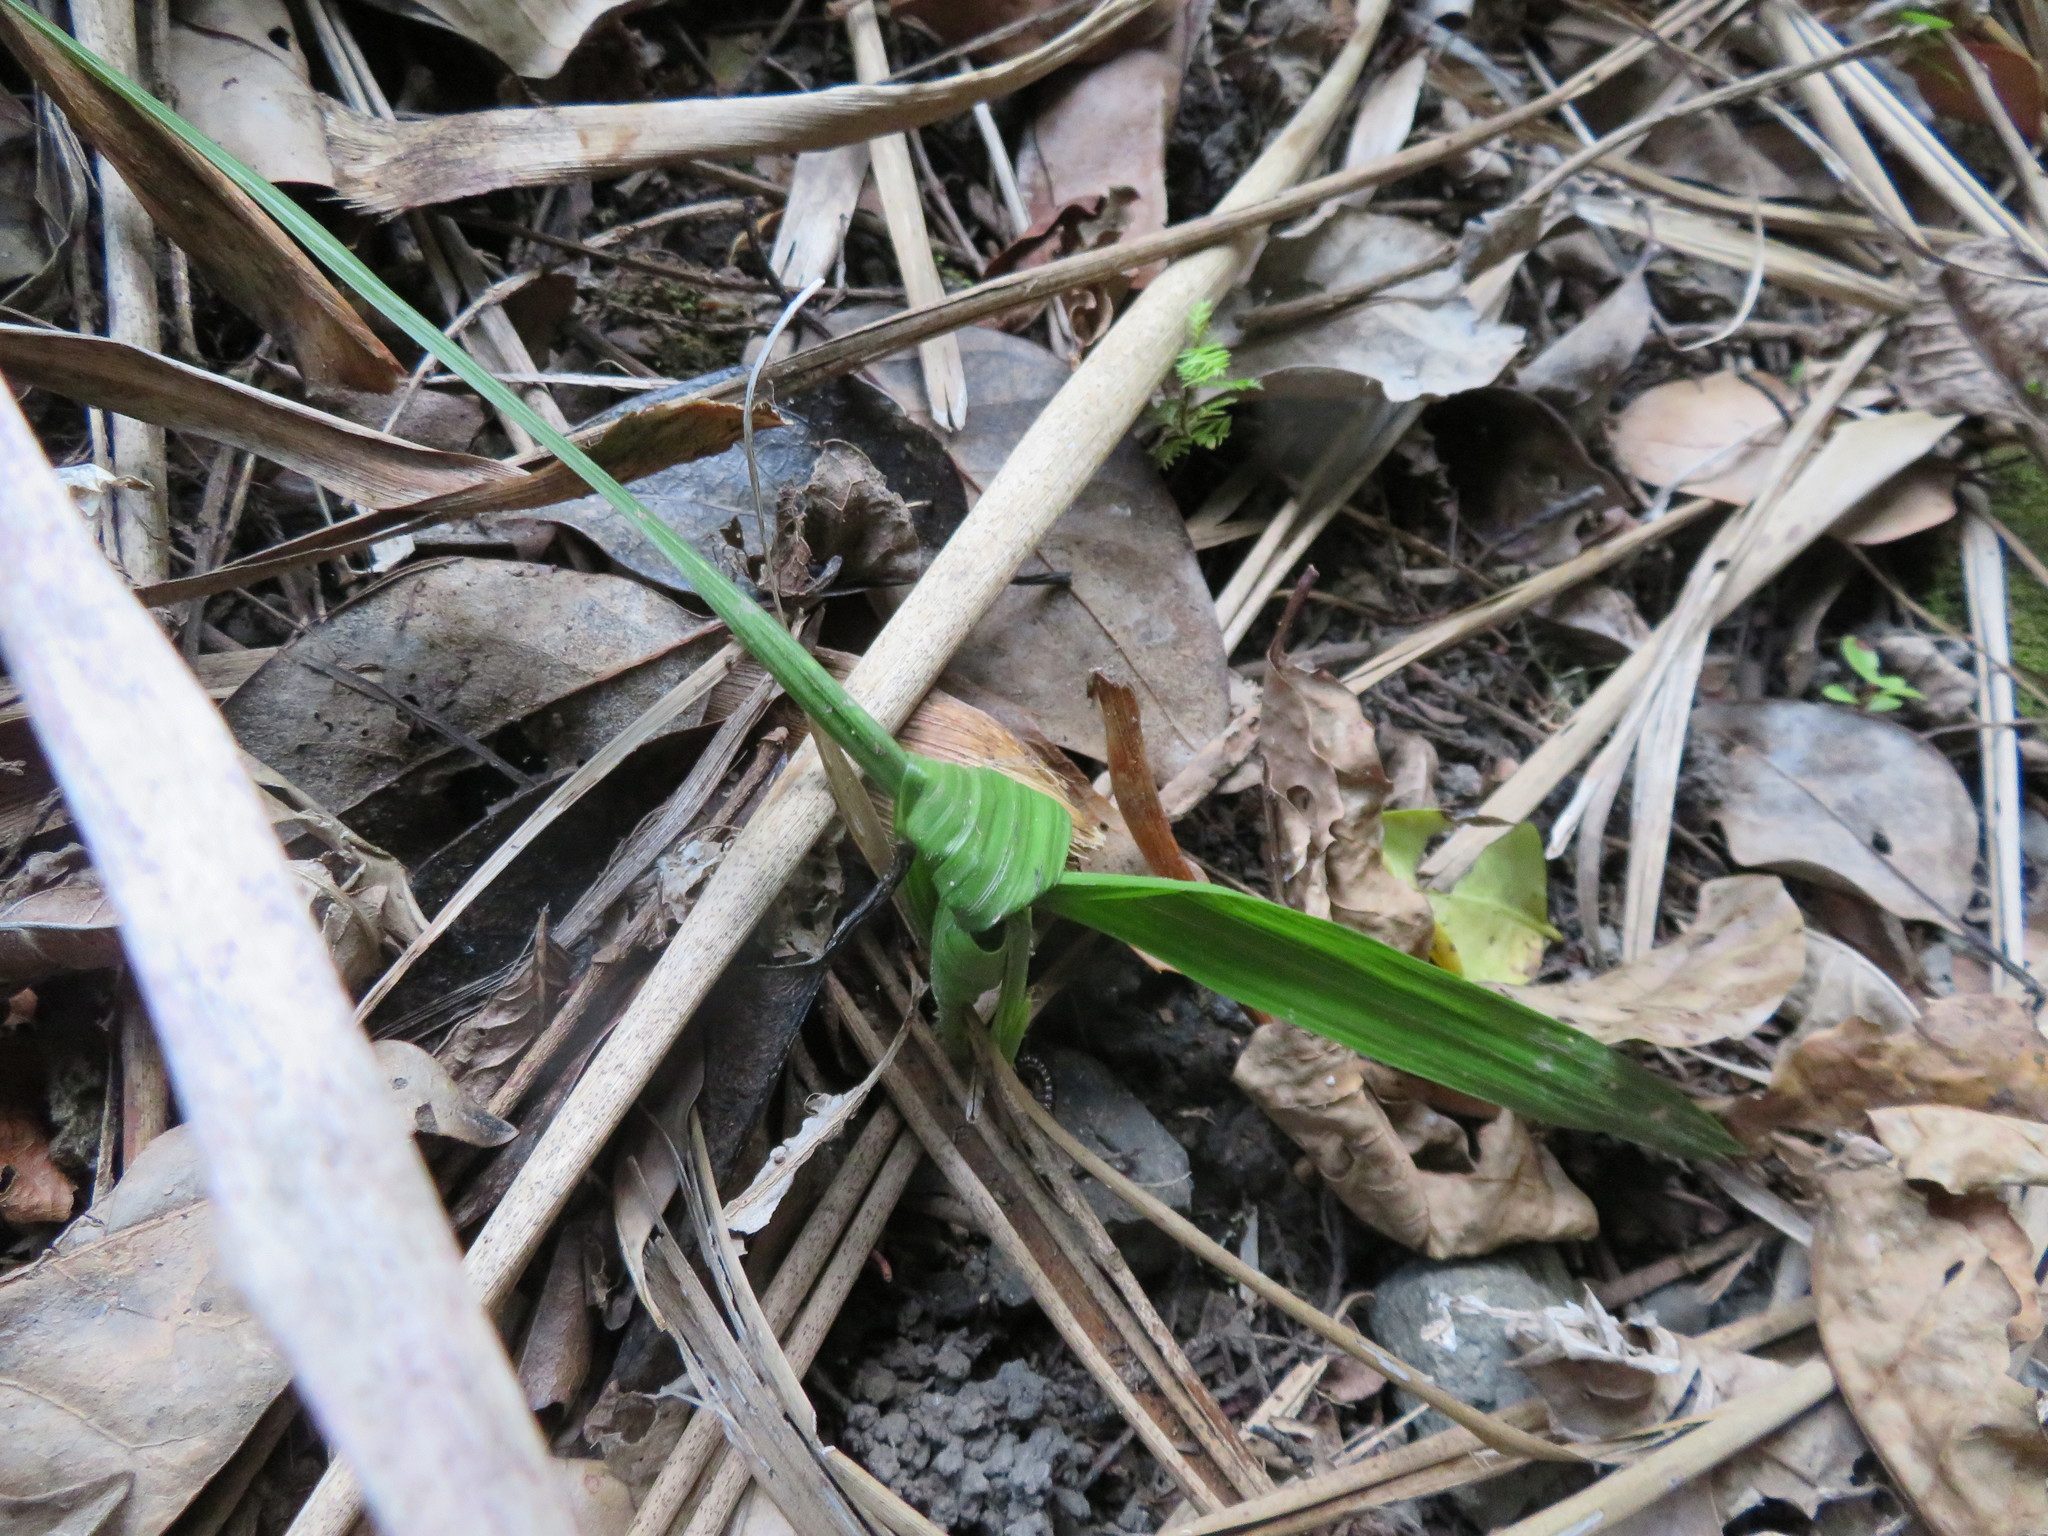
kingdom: Plantae
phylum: Tracheophyta
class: Liliopsida
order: Arecales
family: Arecaceae
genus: Phoenix
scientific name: Phoenix canariensis
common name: Canary island date palm
